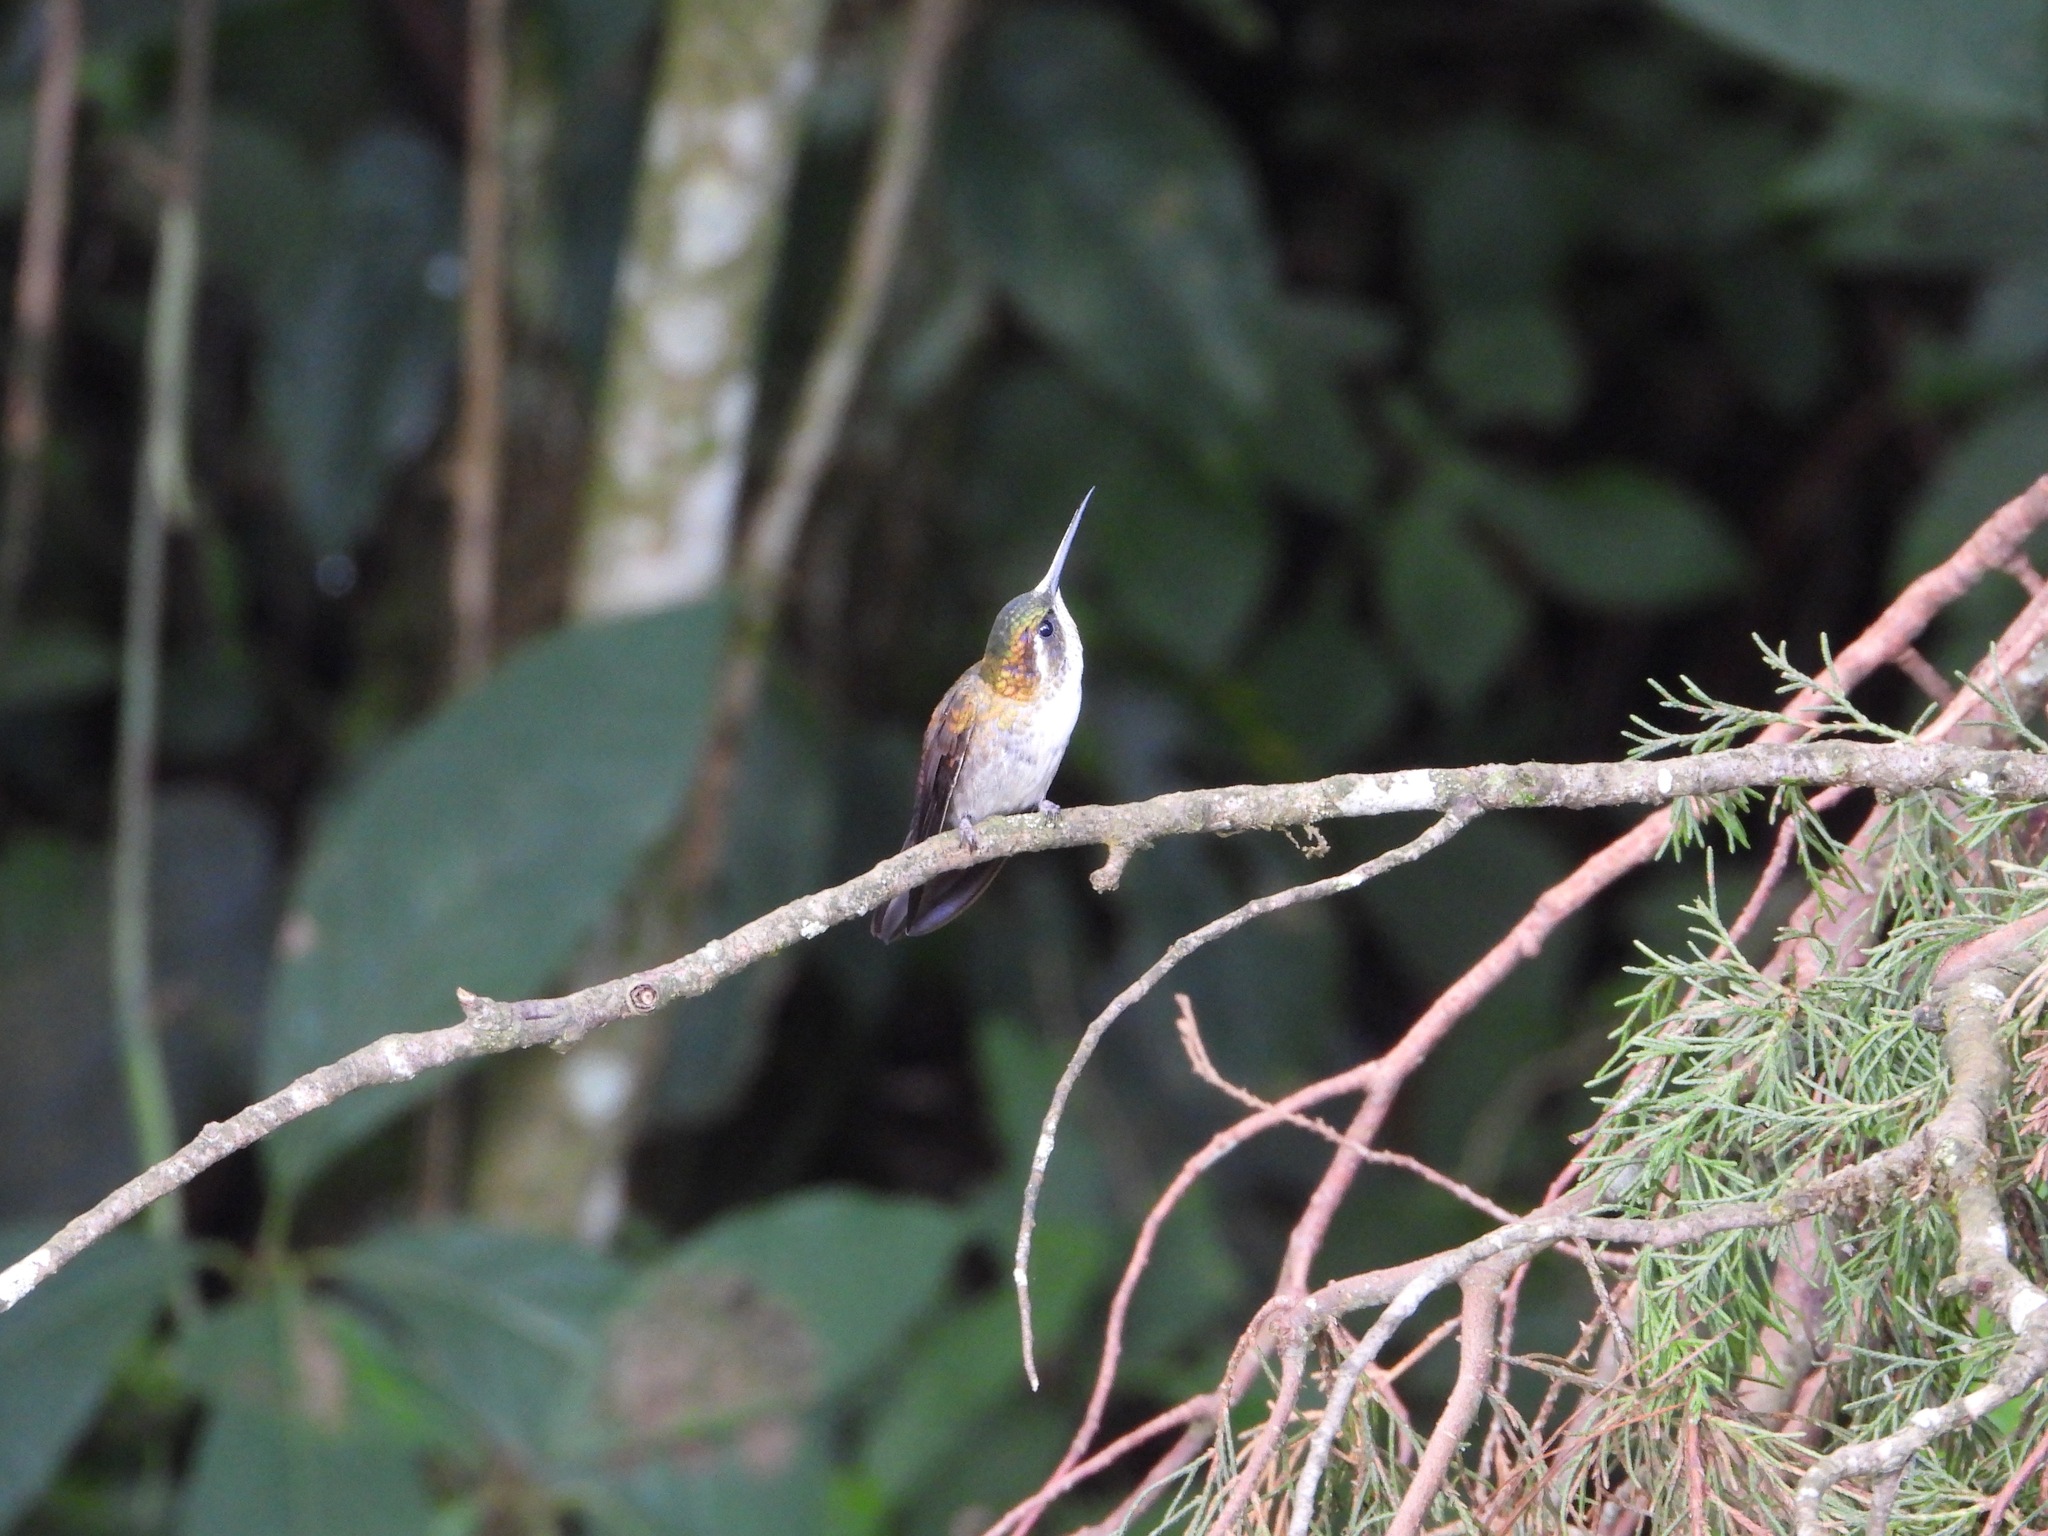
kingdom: Animalia
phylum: Chordata
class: Aves
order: Apodiformes
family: Trochilidae
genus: Lampornis
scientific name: Lampornis viridipallens
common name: Green-throated mountain-gem
